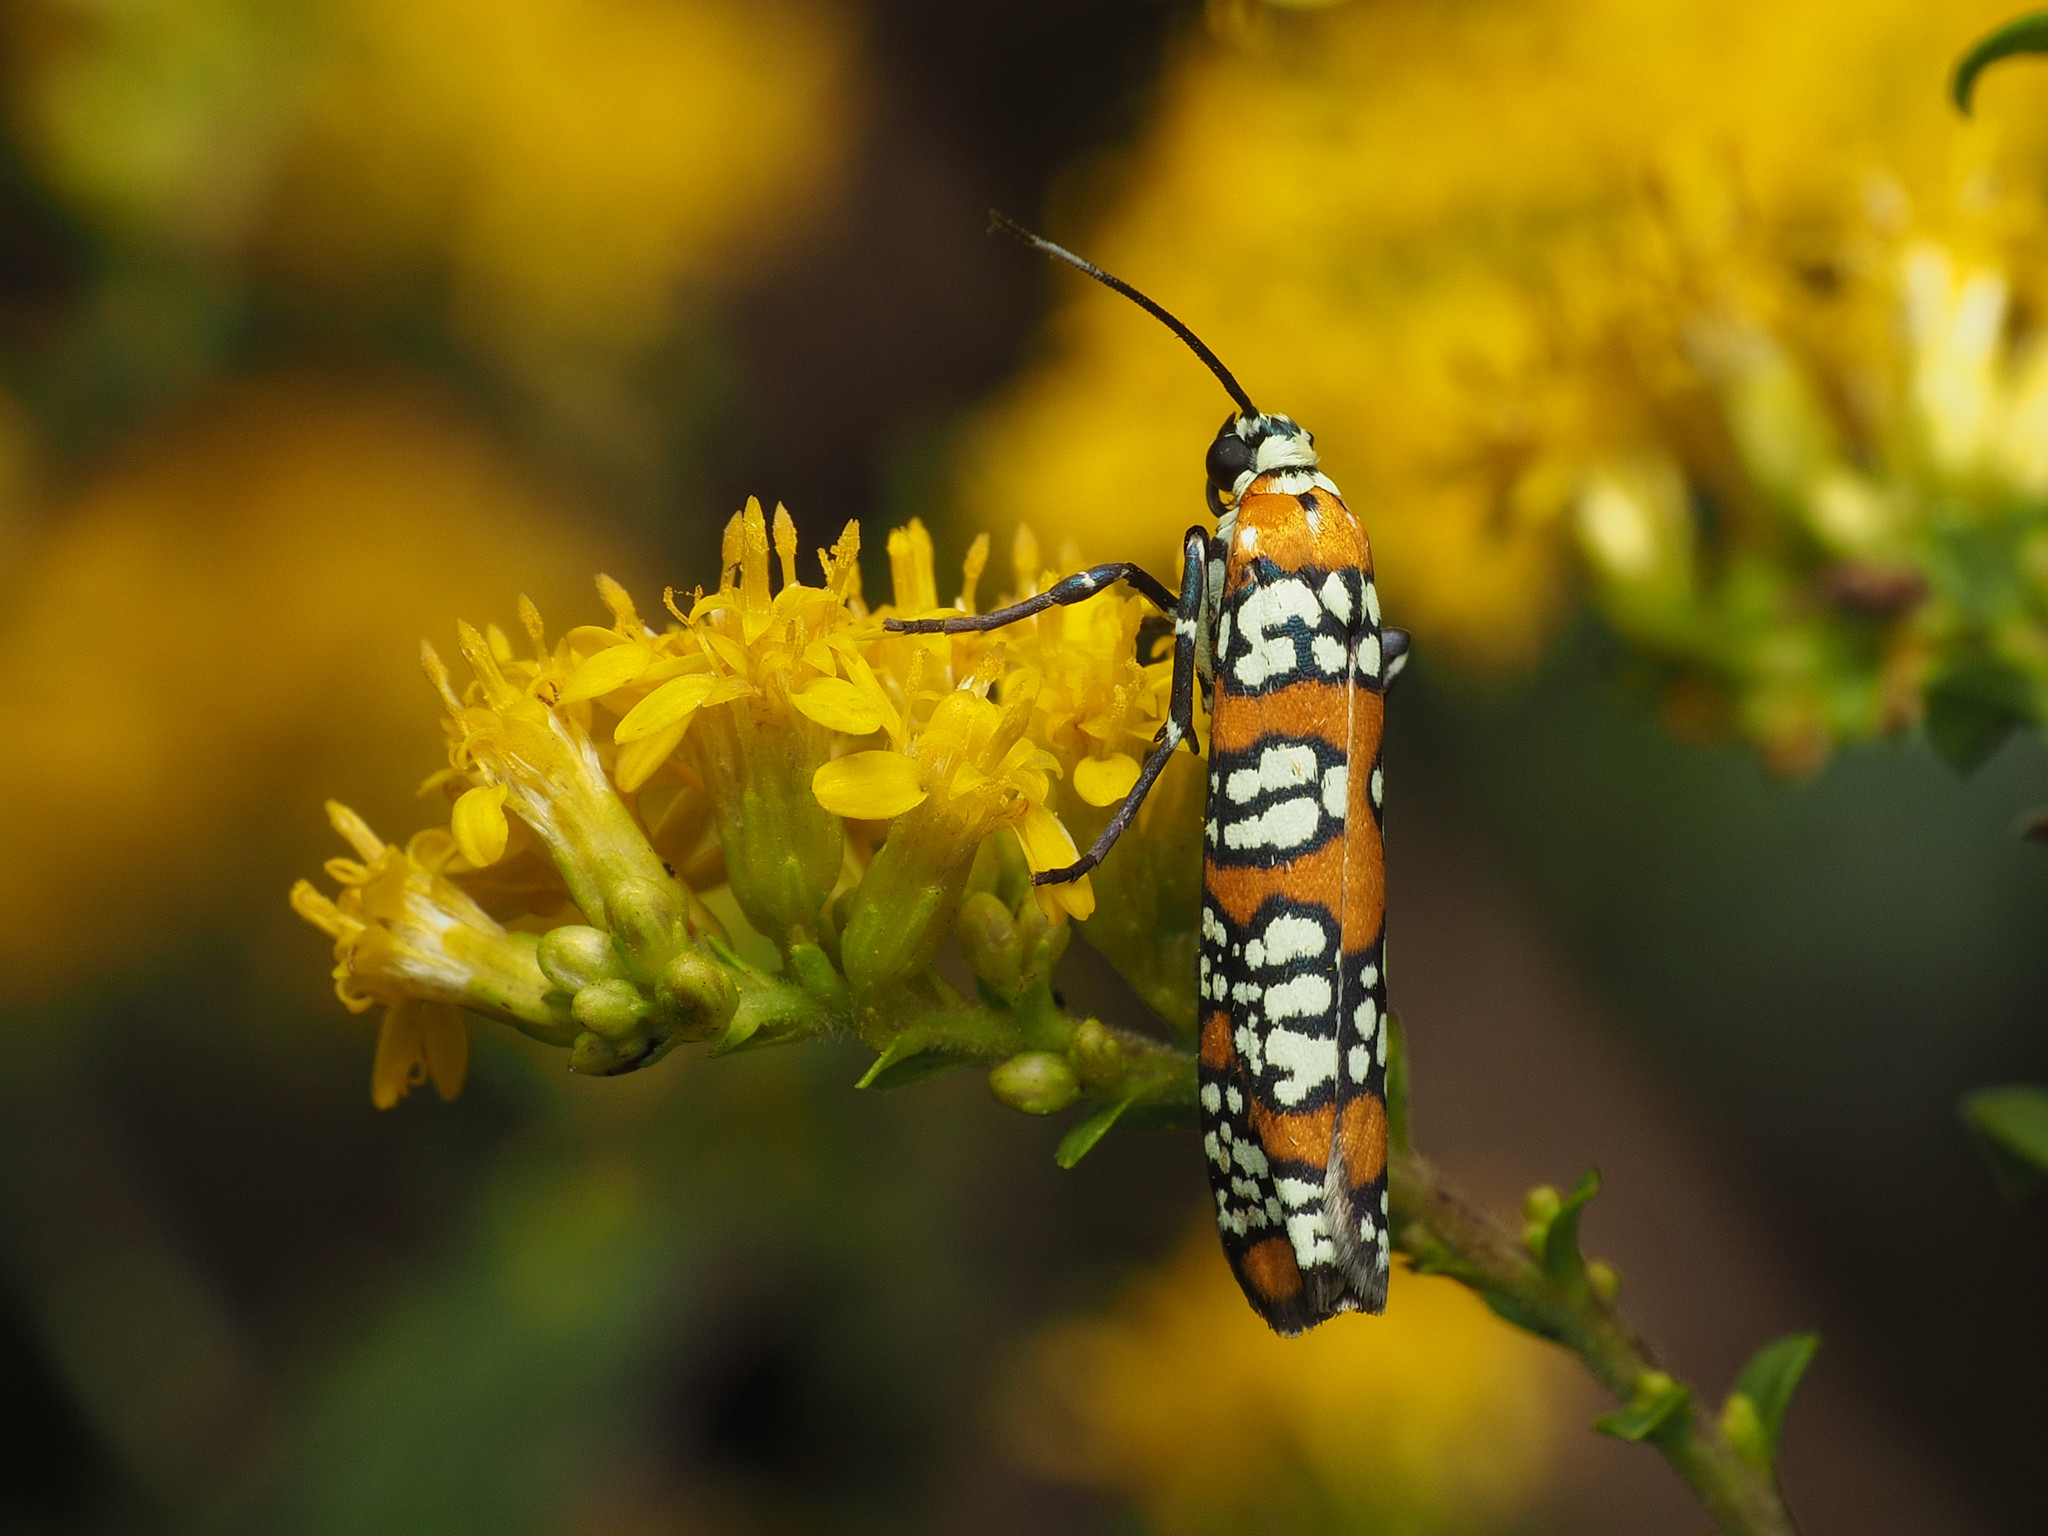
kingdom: Animalia
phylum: Arthropoda
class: Insecta
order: Lepidoptera
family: Attevidae
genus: Atteva
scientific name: Atteva punctella
